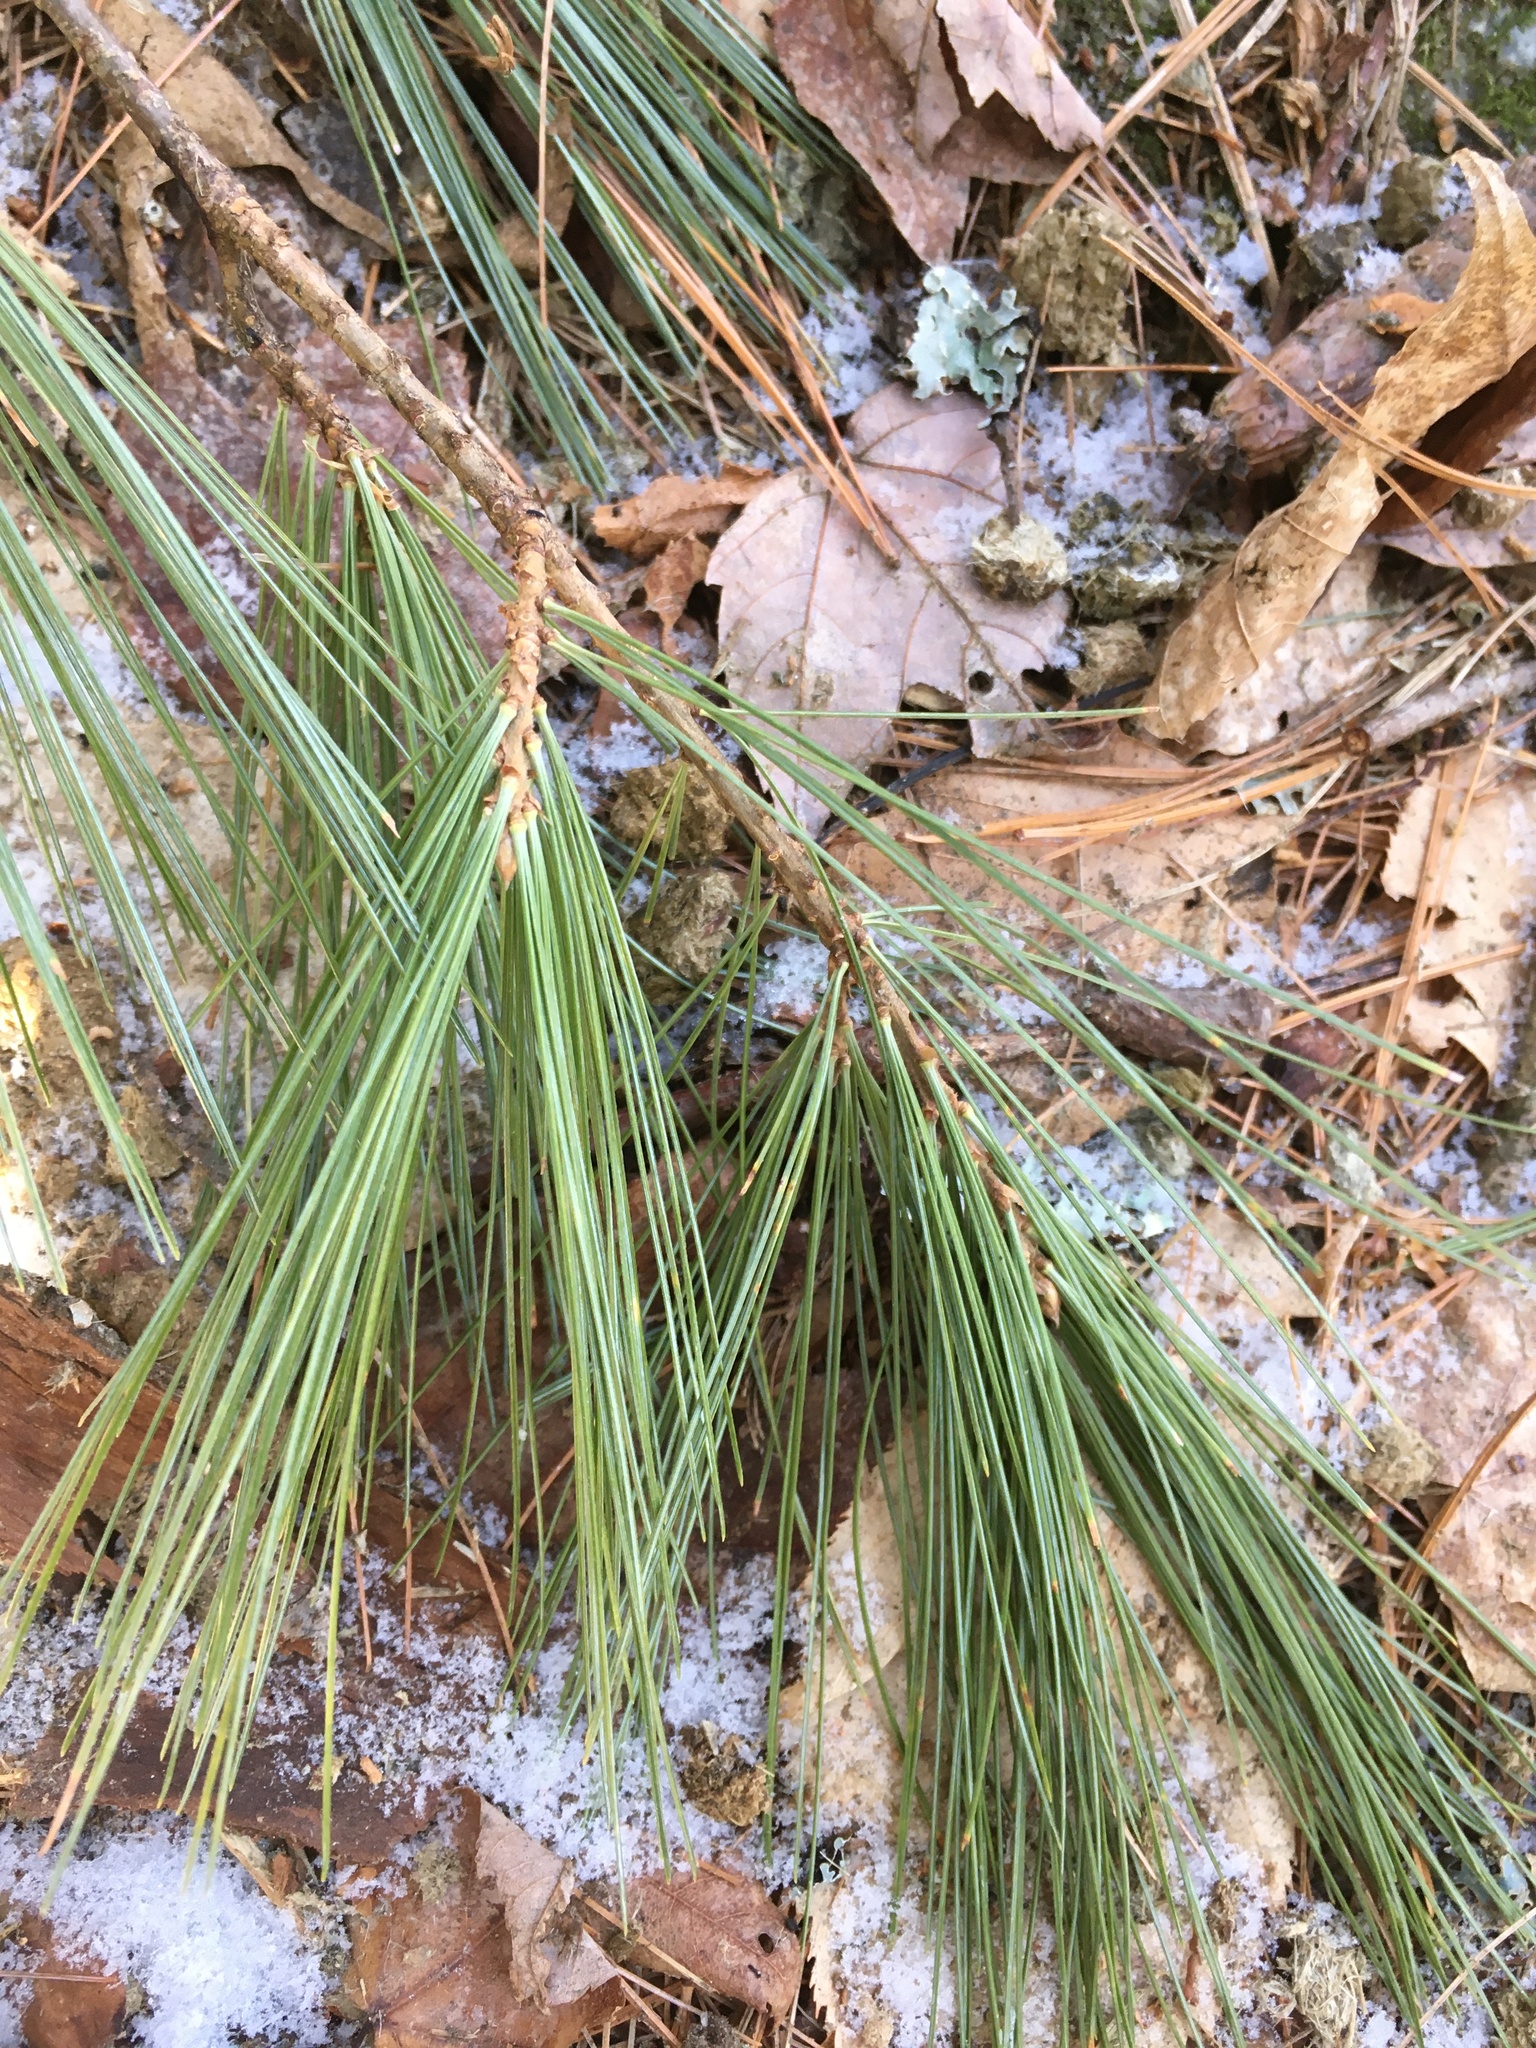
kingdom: Plantae
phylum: Tracheophyta
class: Pinopsida
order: Pinales
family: Pinaceae
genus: Pinus
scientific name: Pinus strobus
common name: Weymouth pine
